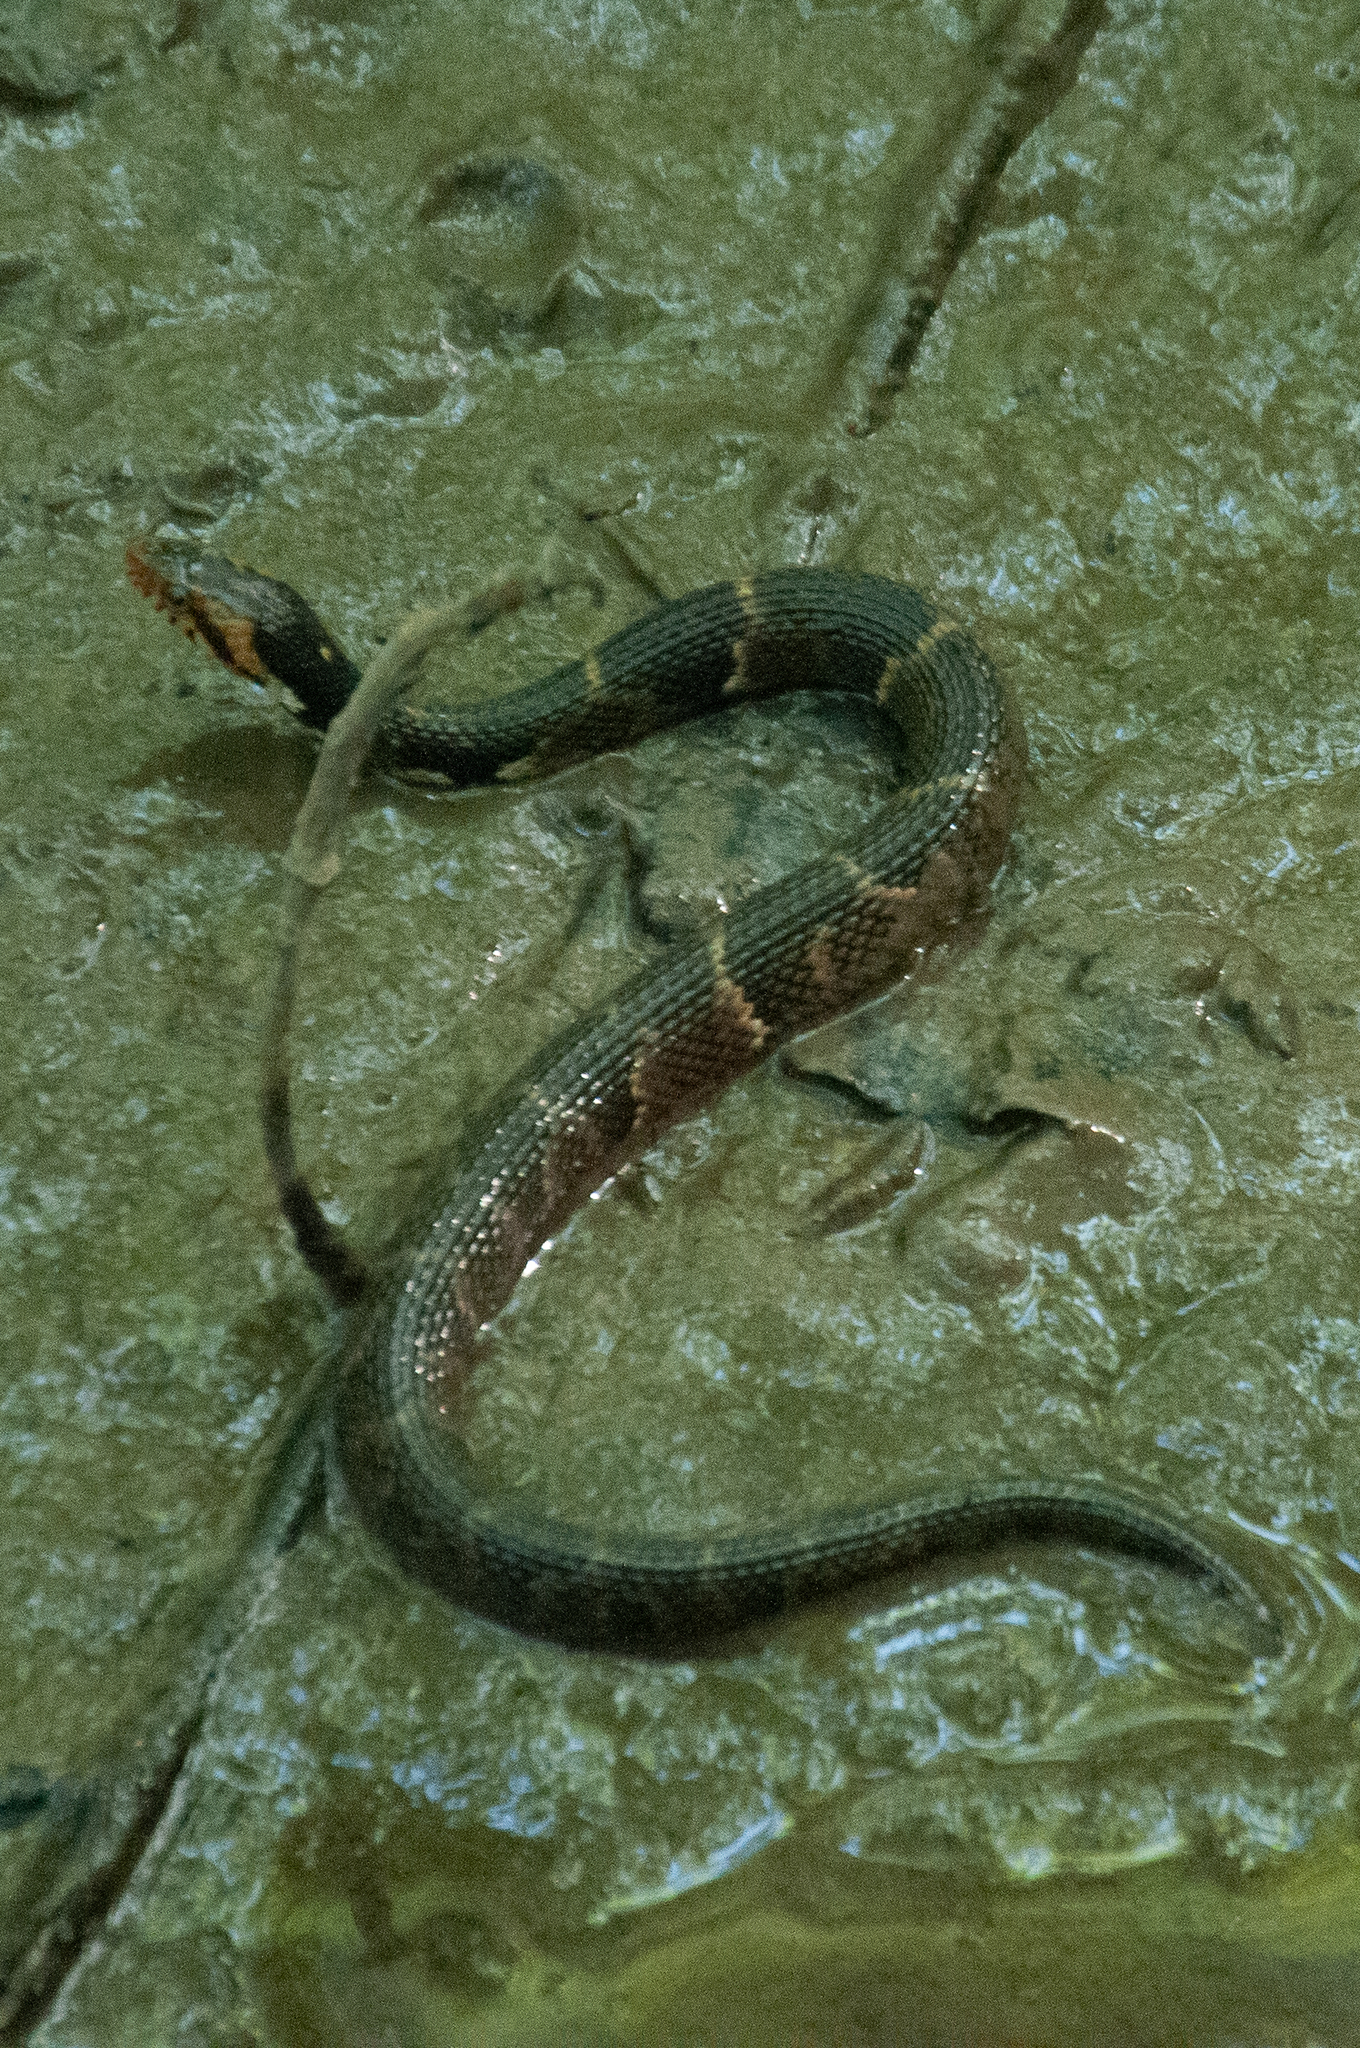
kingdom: Animalia
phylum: Chordata
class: Squamata
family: Colubridae
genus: Nerodia
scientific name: Nerodia fasciata
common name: Southern water snake
